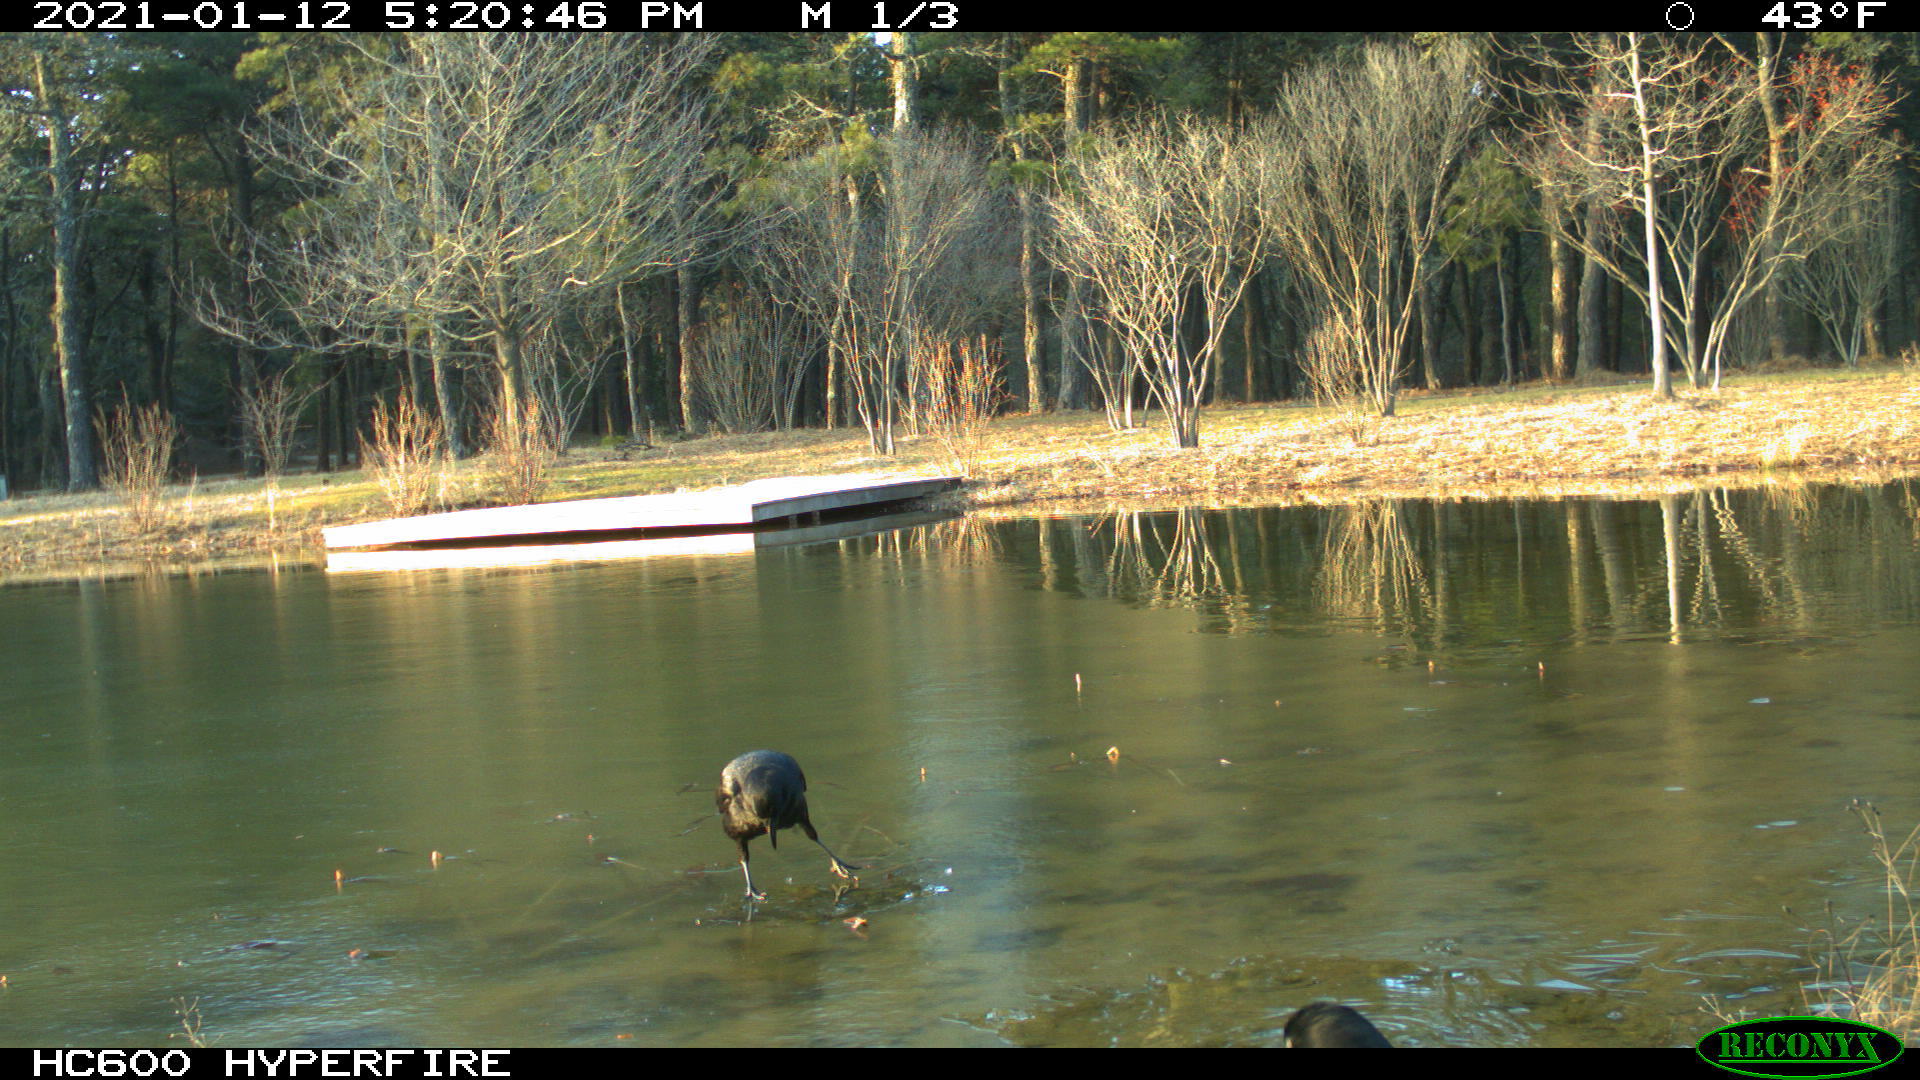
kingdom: Animalia
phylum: Chordata
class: Aves
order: Passeriformes
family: Corvidae
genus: Corvus
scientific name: Corvus brachyrhynchos
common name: American crow
